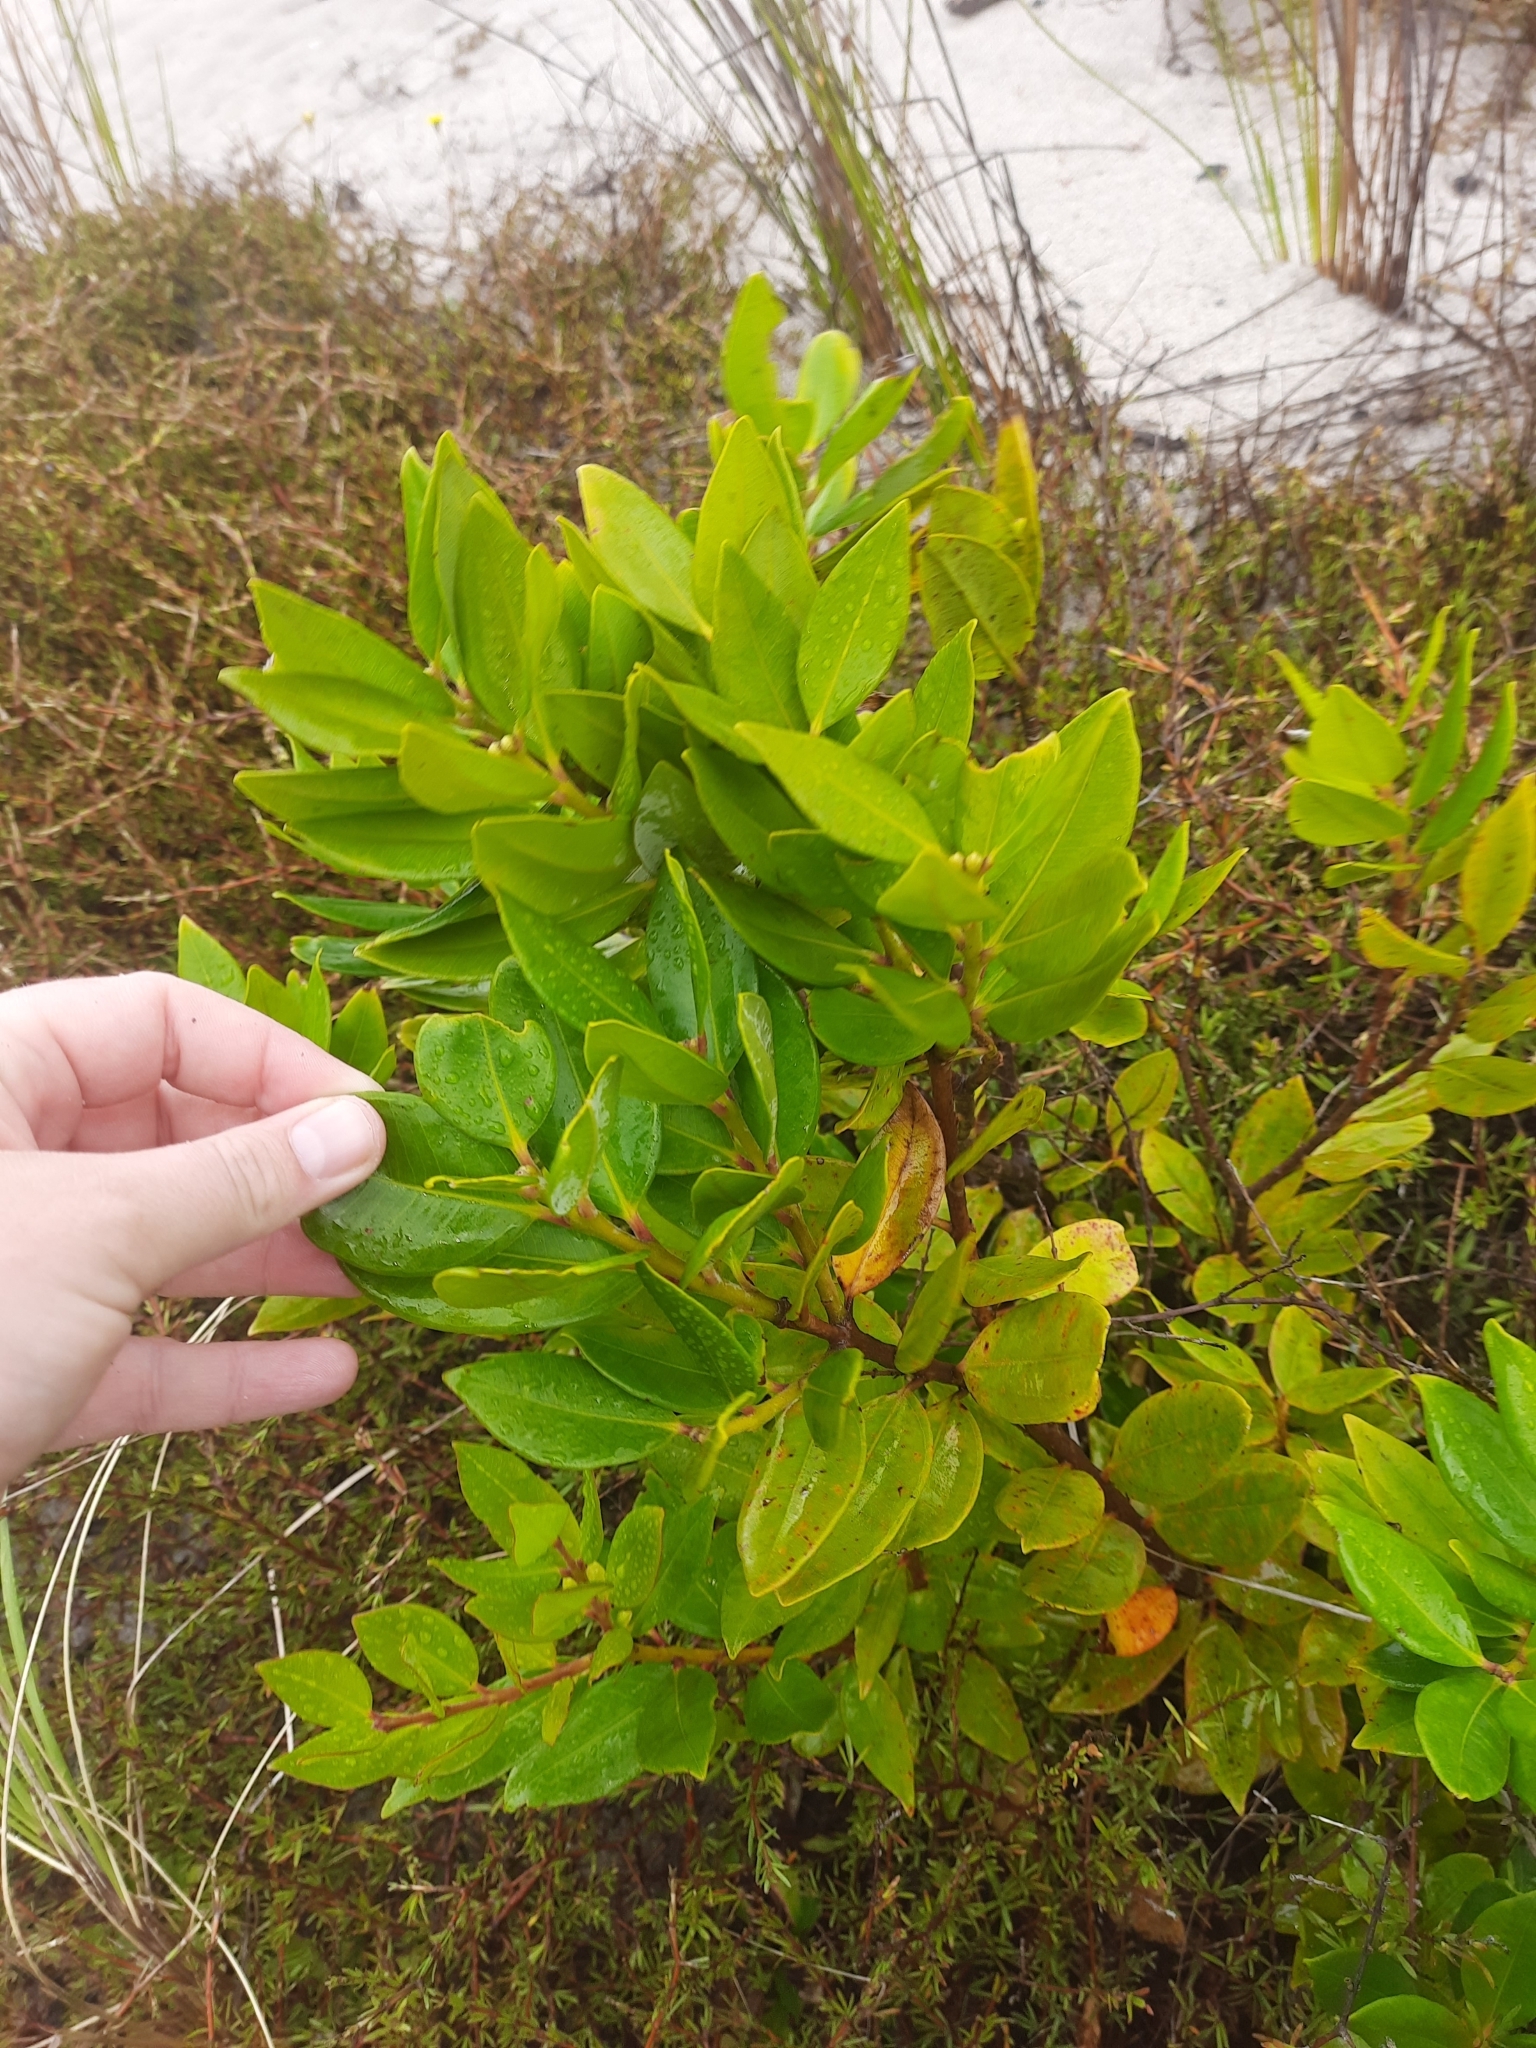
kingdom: Plantae
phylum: Tracheophyta
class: Magnoliopsida
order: Myrtales
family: Myrtaceae
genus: Metrosideros
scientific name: Metrosideros excelsa
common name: New zealand christmastree
